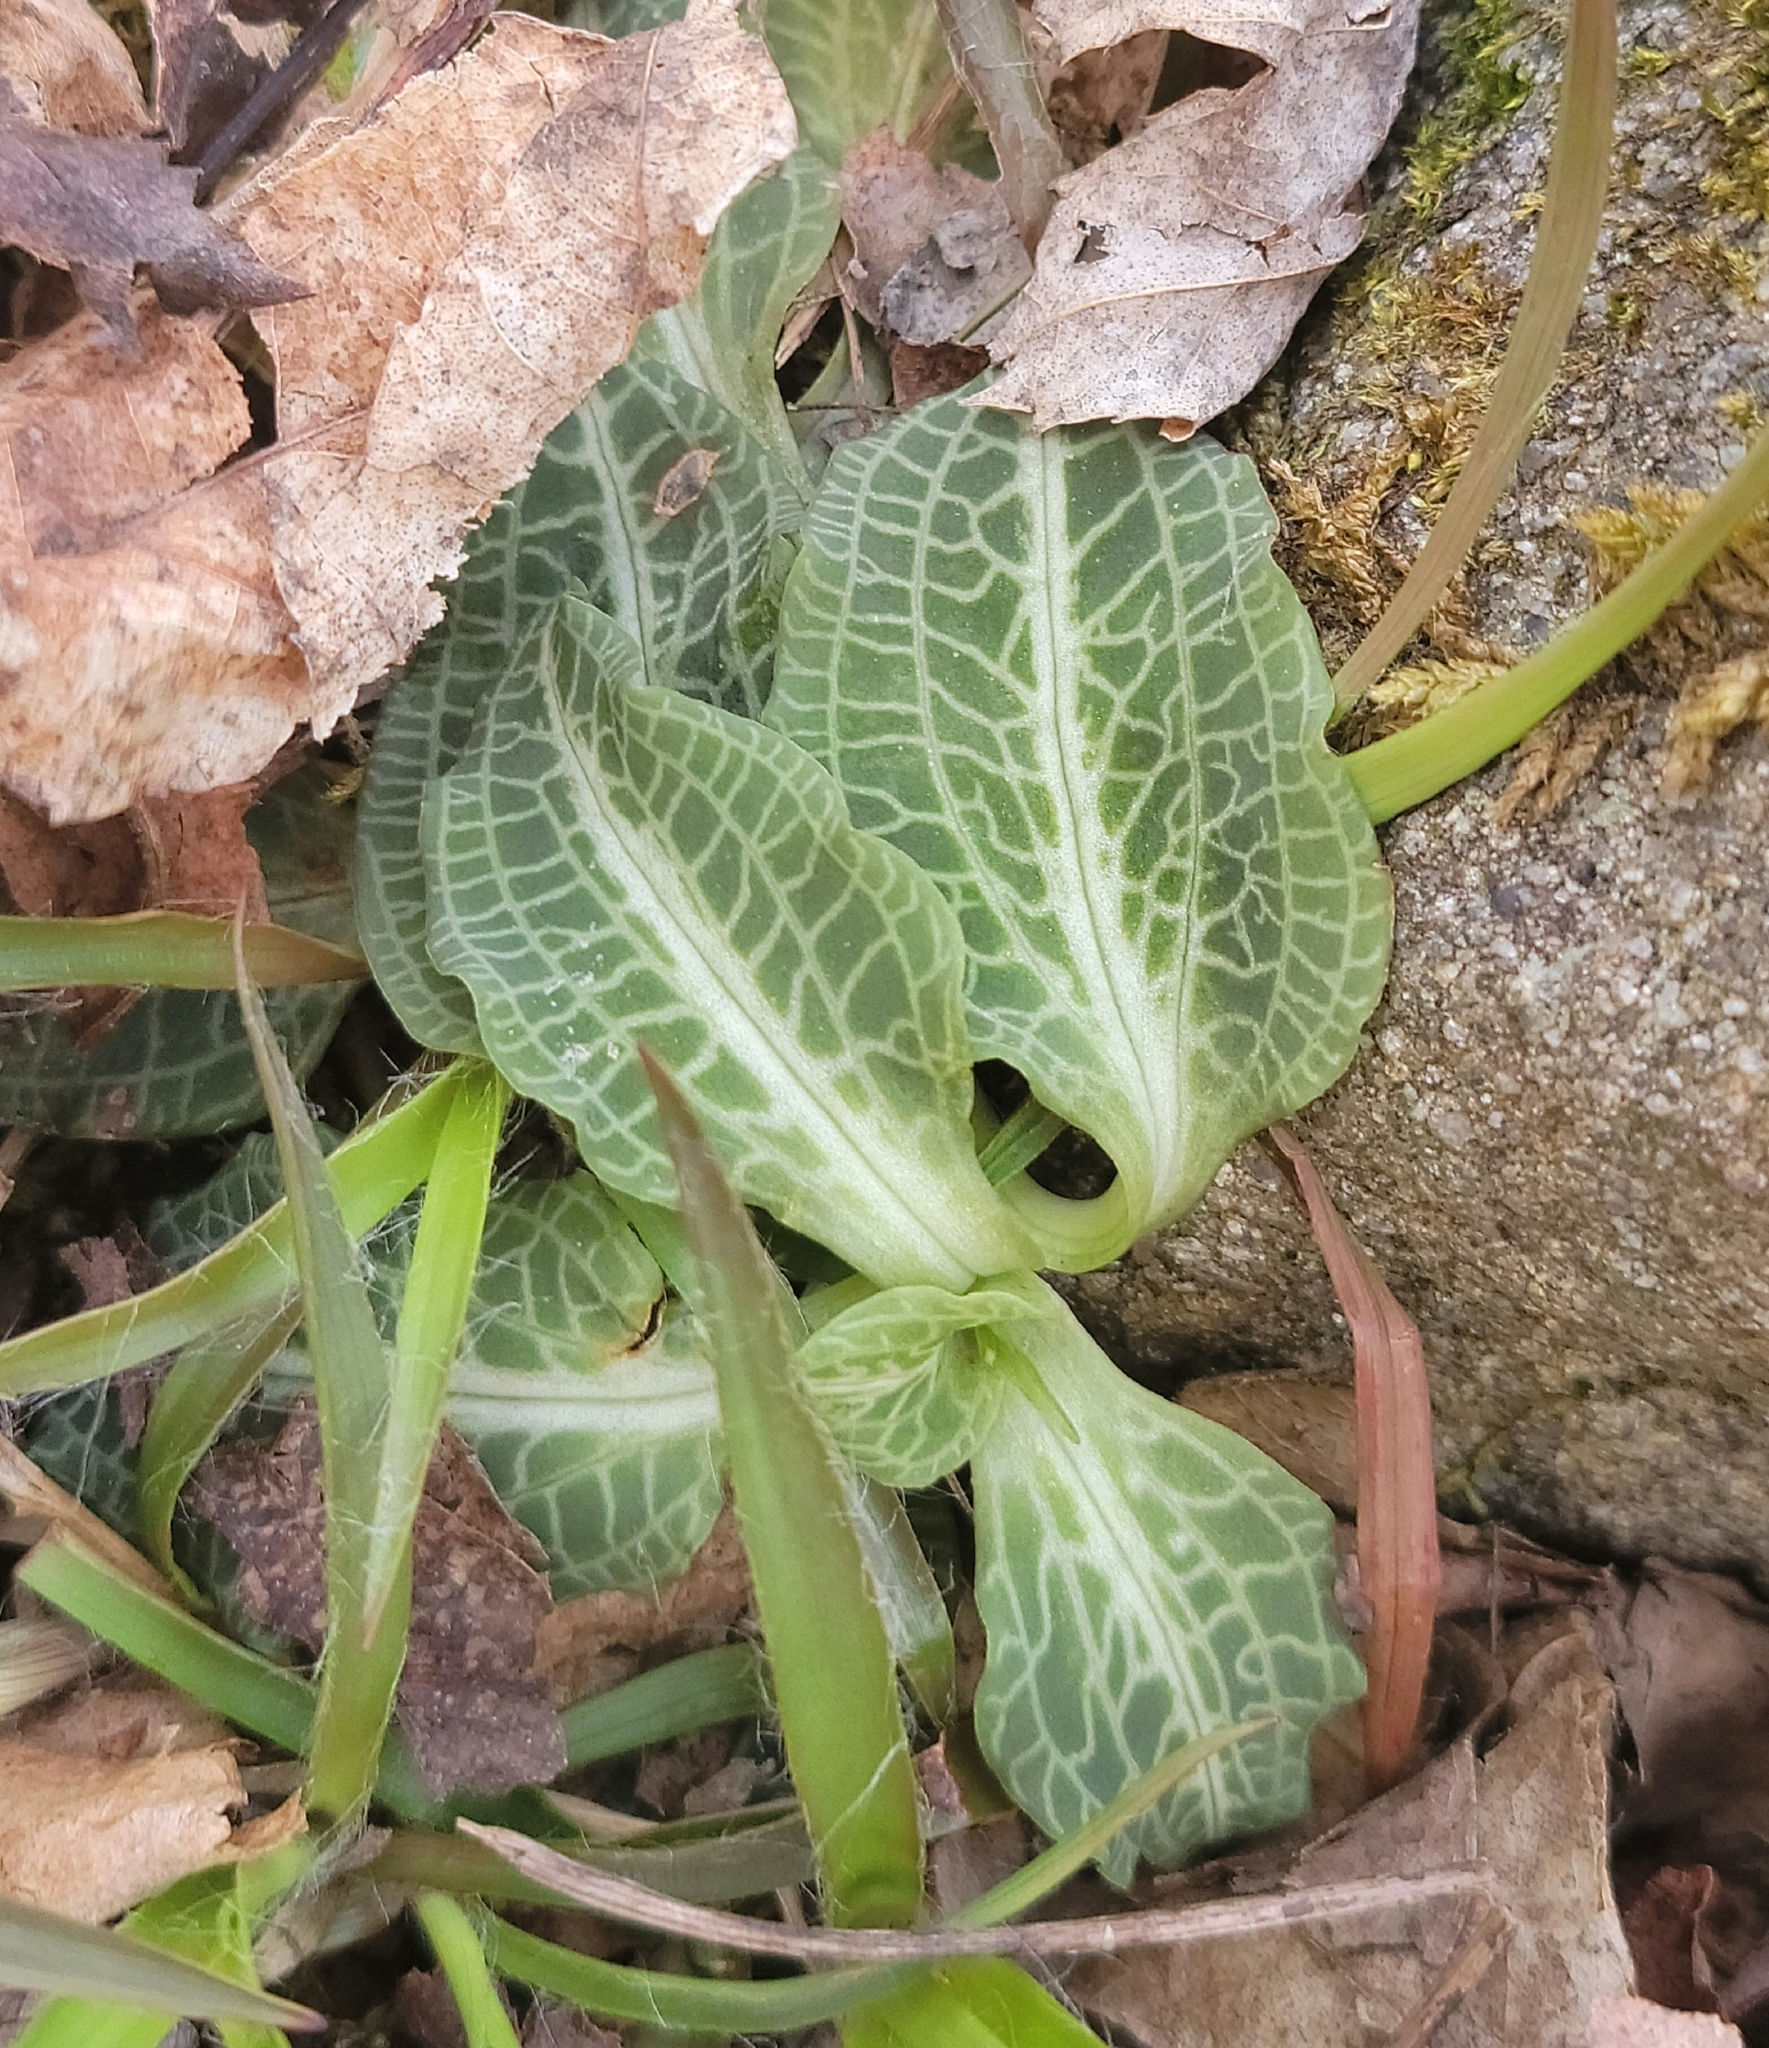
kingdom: Plantae
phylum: Tracheophyta
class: Liliopsida
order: Asparagales
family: Orchidaceae
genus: Goodyera
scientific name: Goodyera pubescens
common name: Downy rattlesnake-plantain
